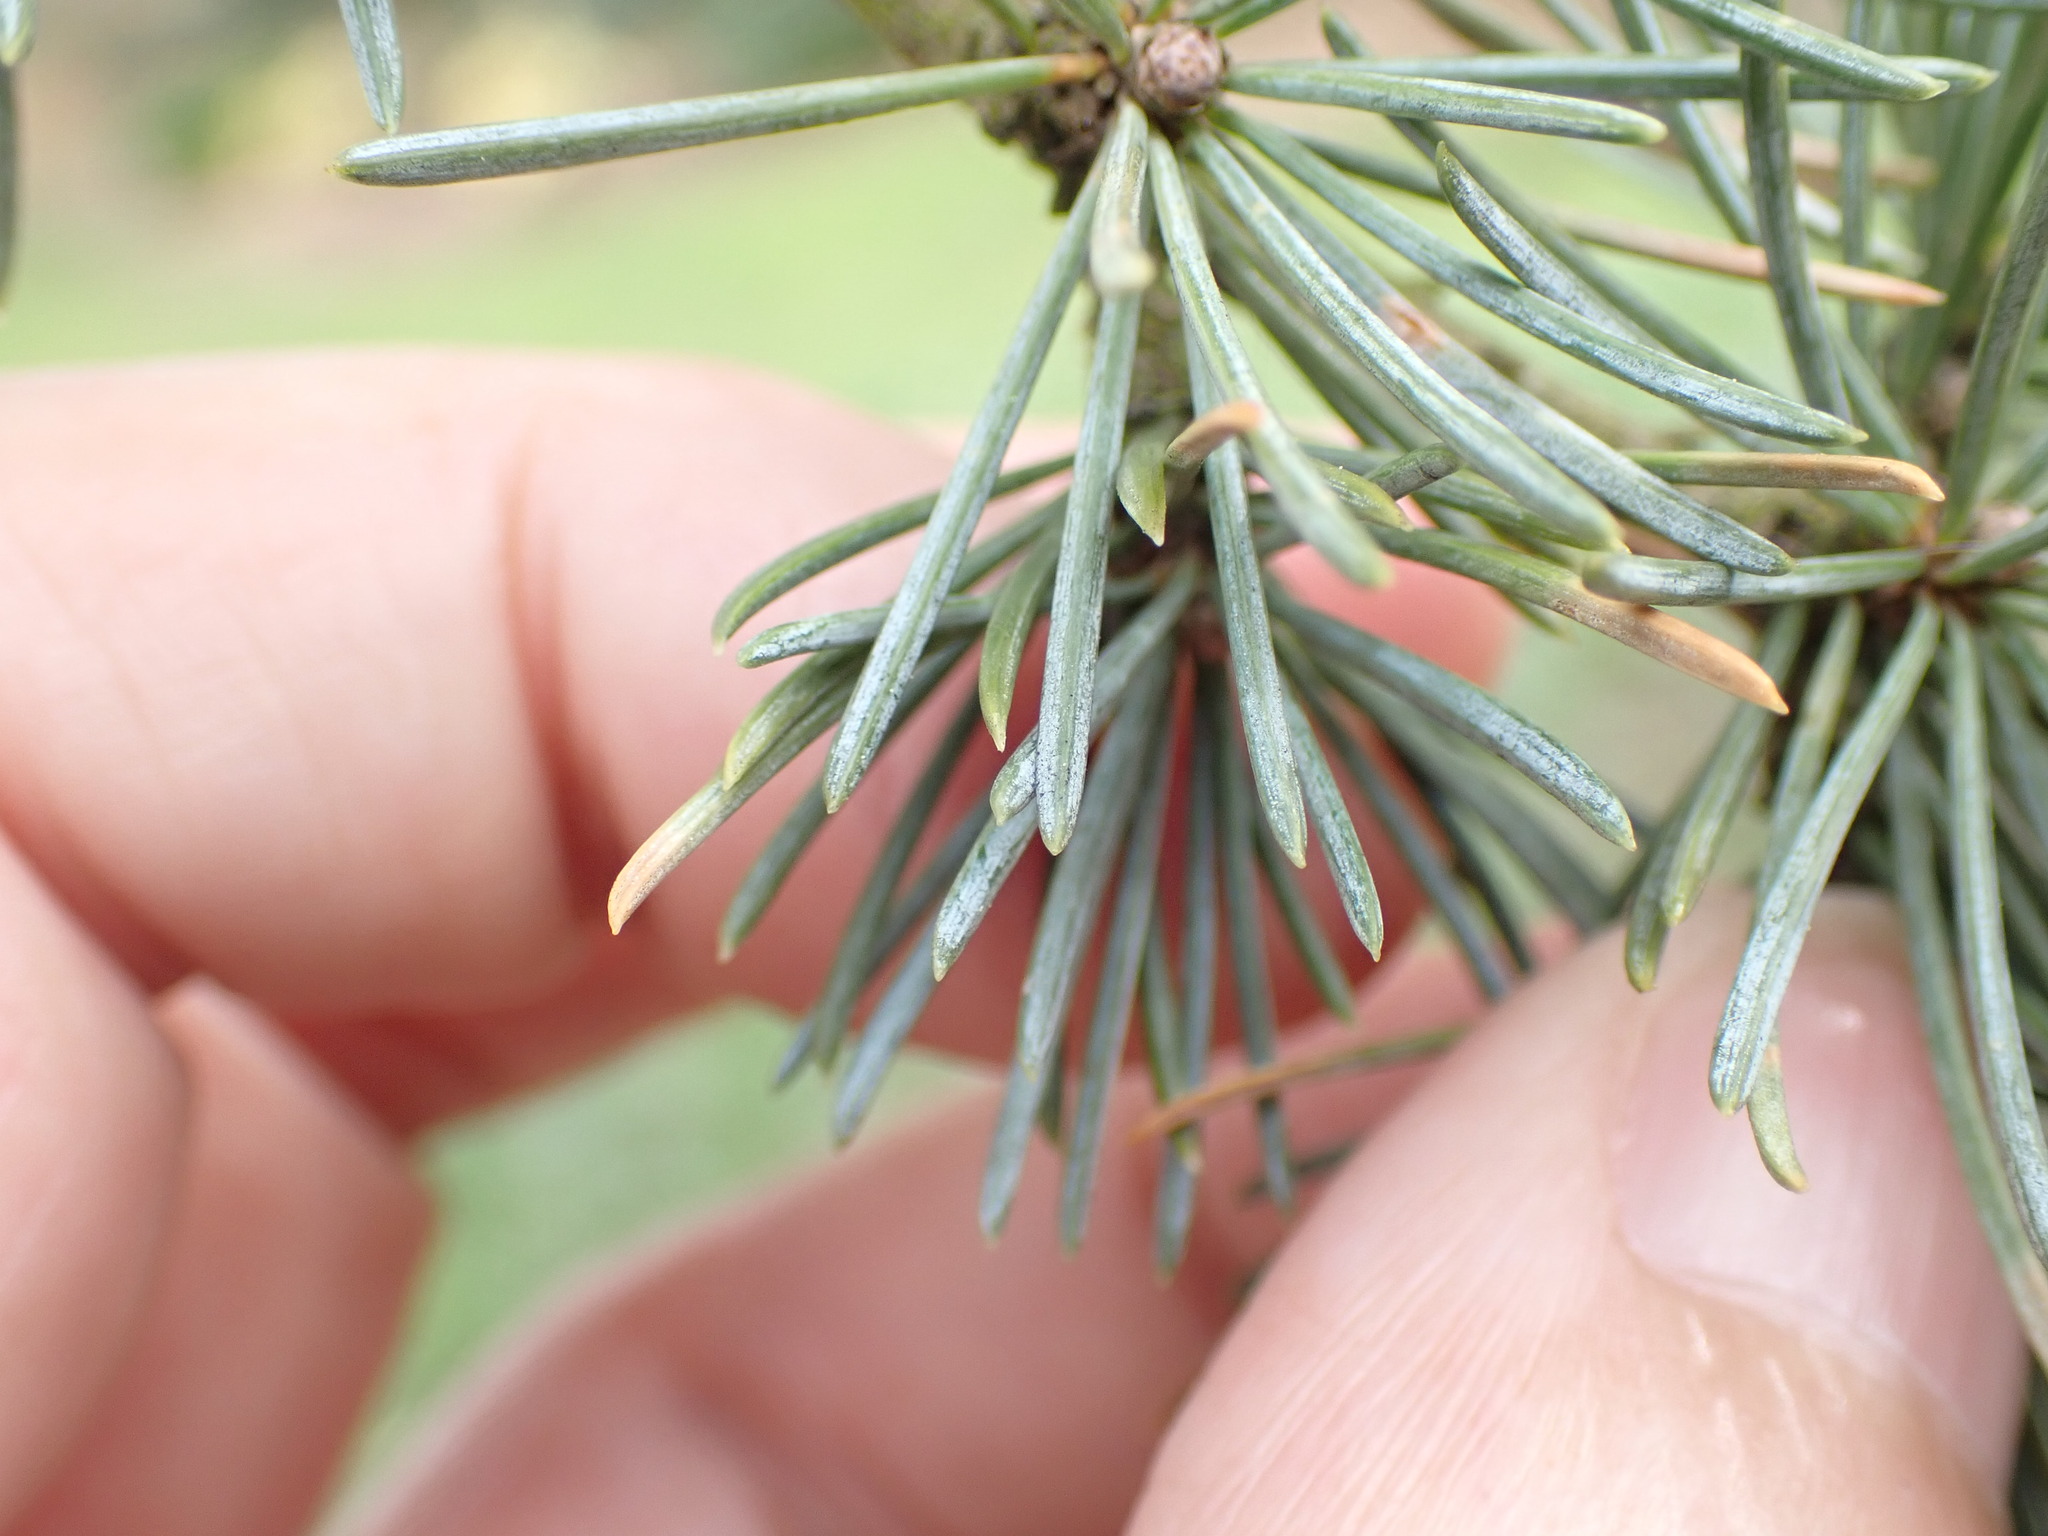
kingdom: Plantae
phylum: Tracheophyta
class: Pinopsida
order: Pinales
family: Pinaceae
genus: Cedrus
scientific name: Cedrus atlantica
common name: Atlas cedar
